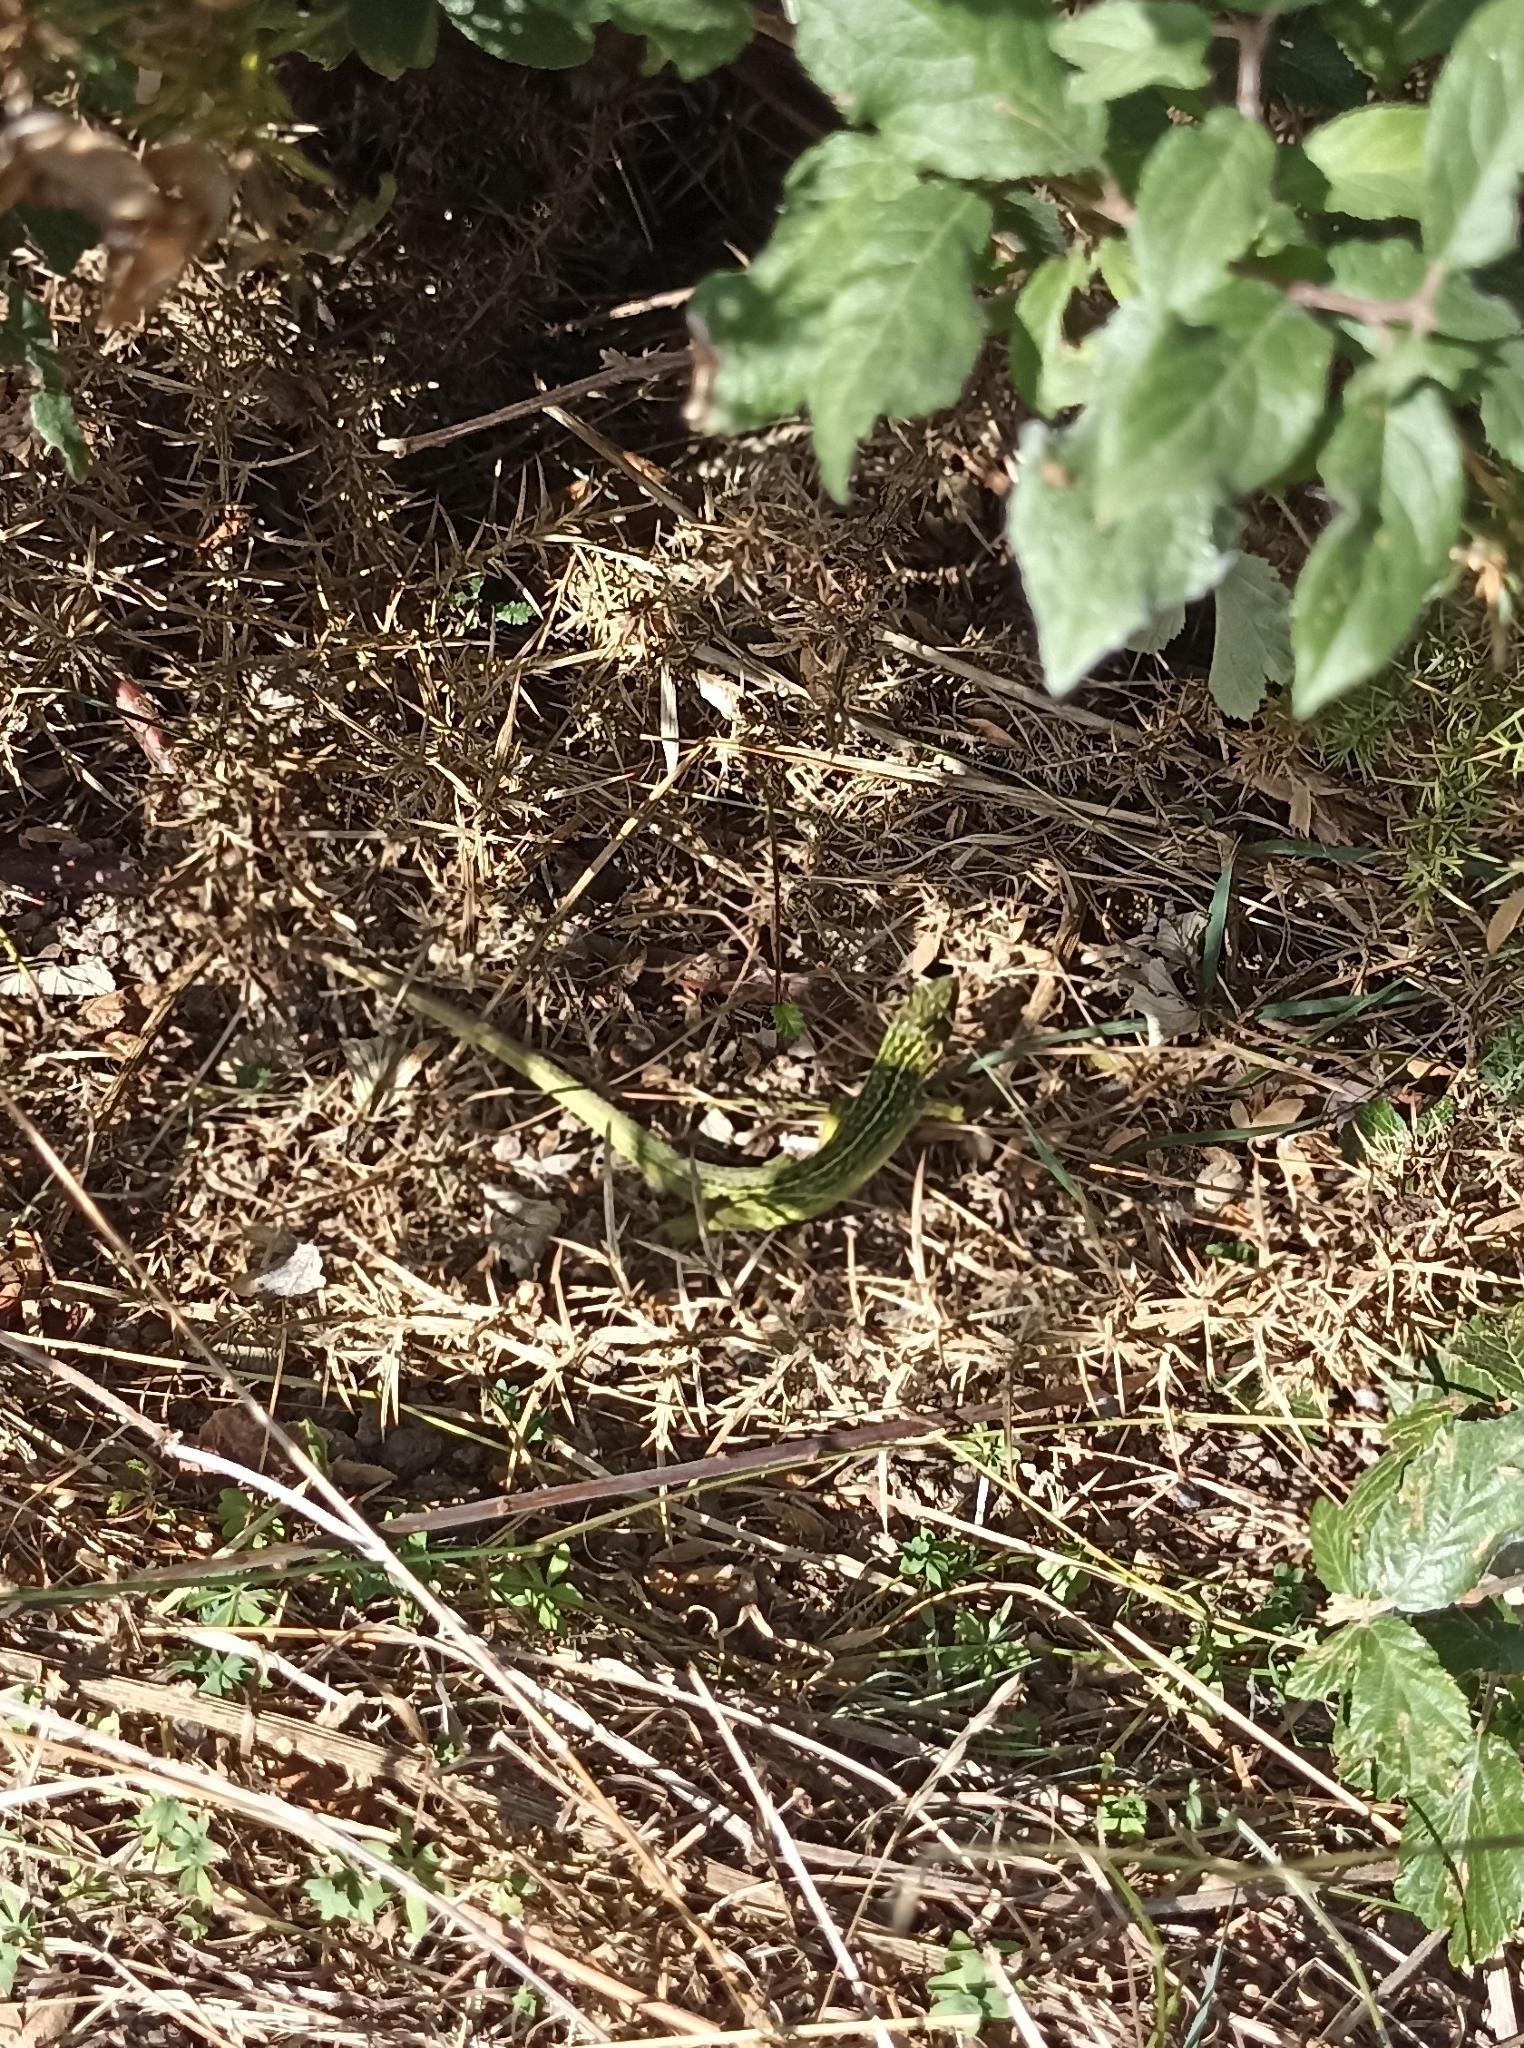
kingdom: Animalia
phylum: Chordata
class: Squamata
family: Lacertidae
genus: Lacerta
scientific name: Lacerta bilineata
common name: Western green lizard
